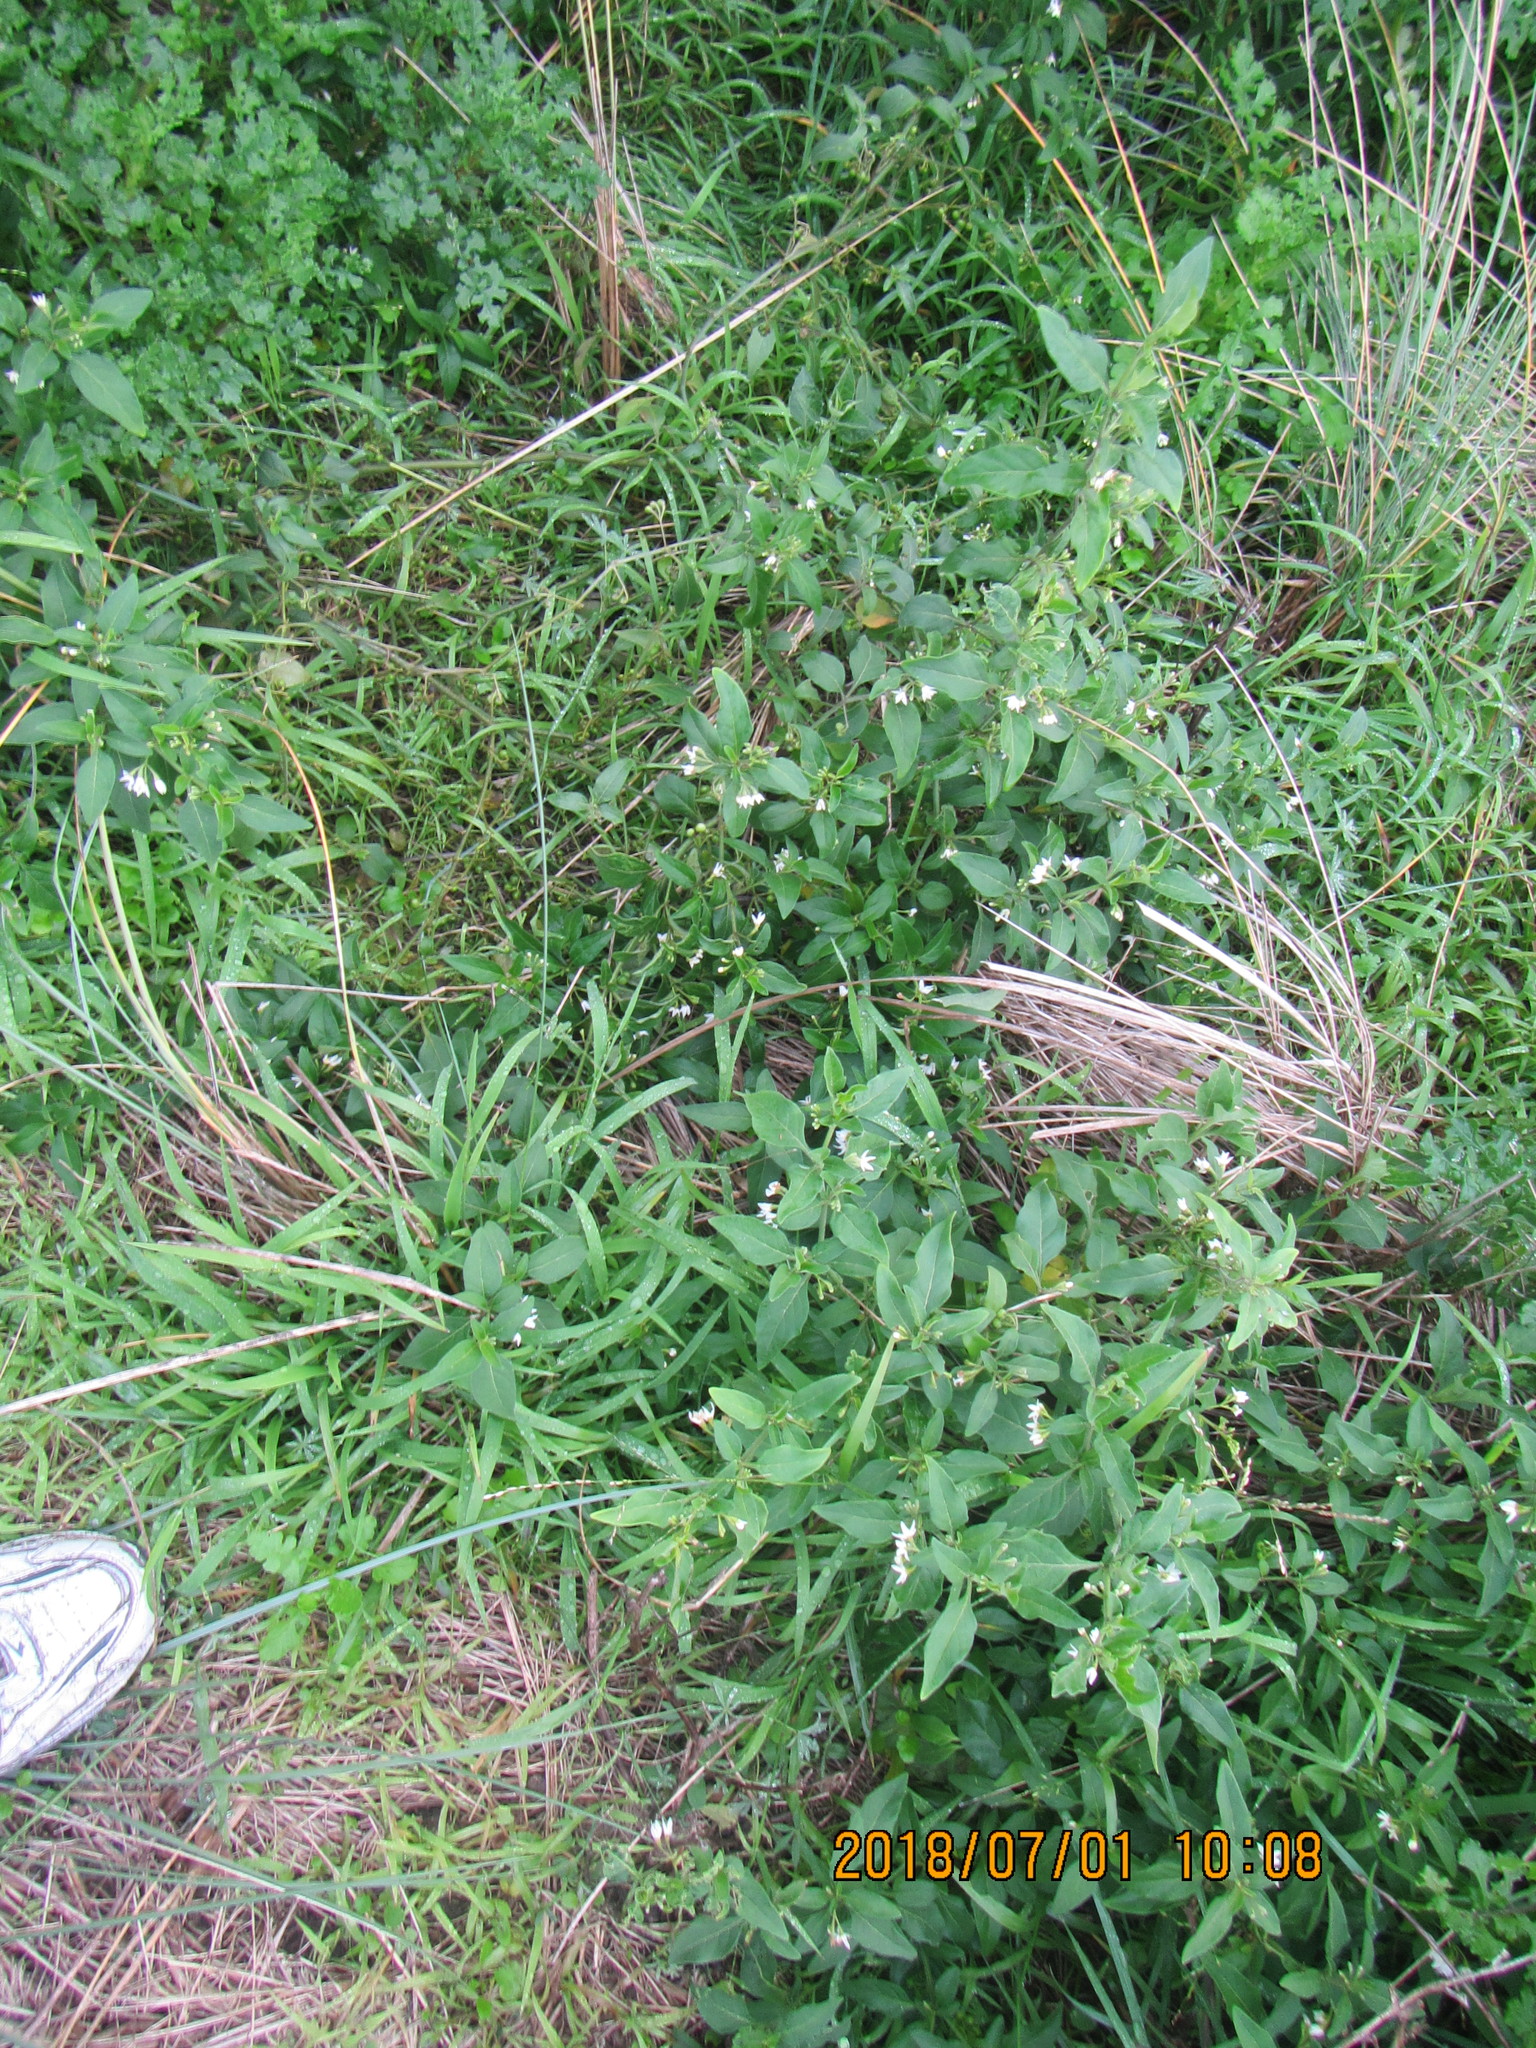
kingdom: Plantae
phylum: Tracheophyta
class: Magnoliopsida
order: Solanales
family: Solanaceae
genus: Solanum
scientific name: Solanum chenopodioides
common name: Tall nightshade
